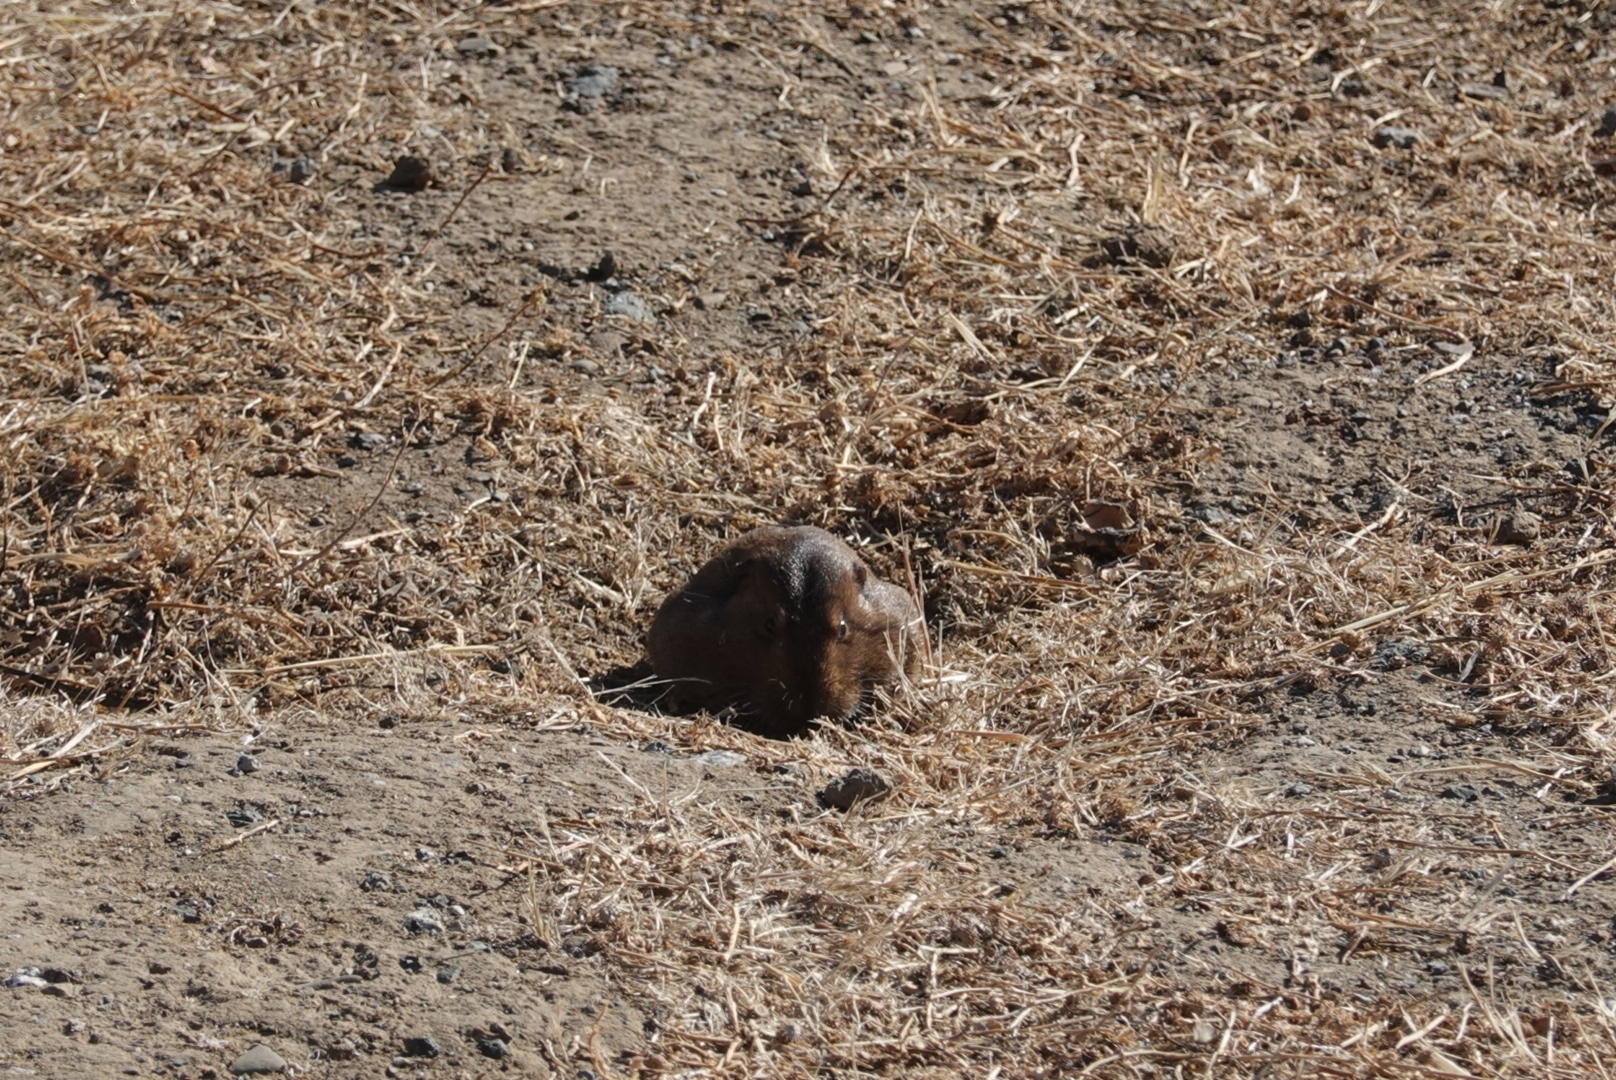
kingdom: Animalia
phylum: Chordata
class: Mammalia
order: Rodentia
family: Geomyidae
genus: Thomomys
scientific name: Thomomys bottae
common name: Botta's pocket gopher
